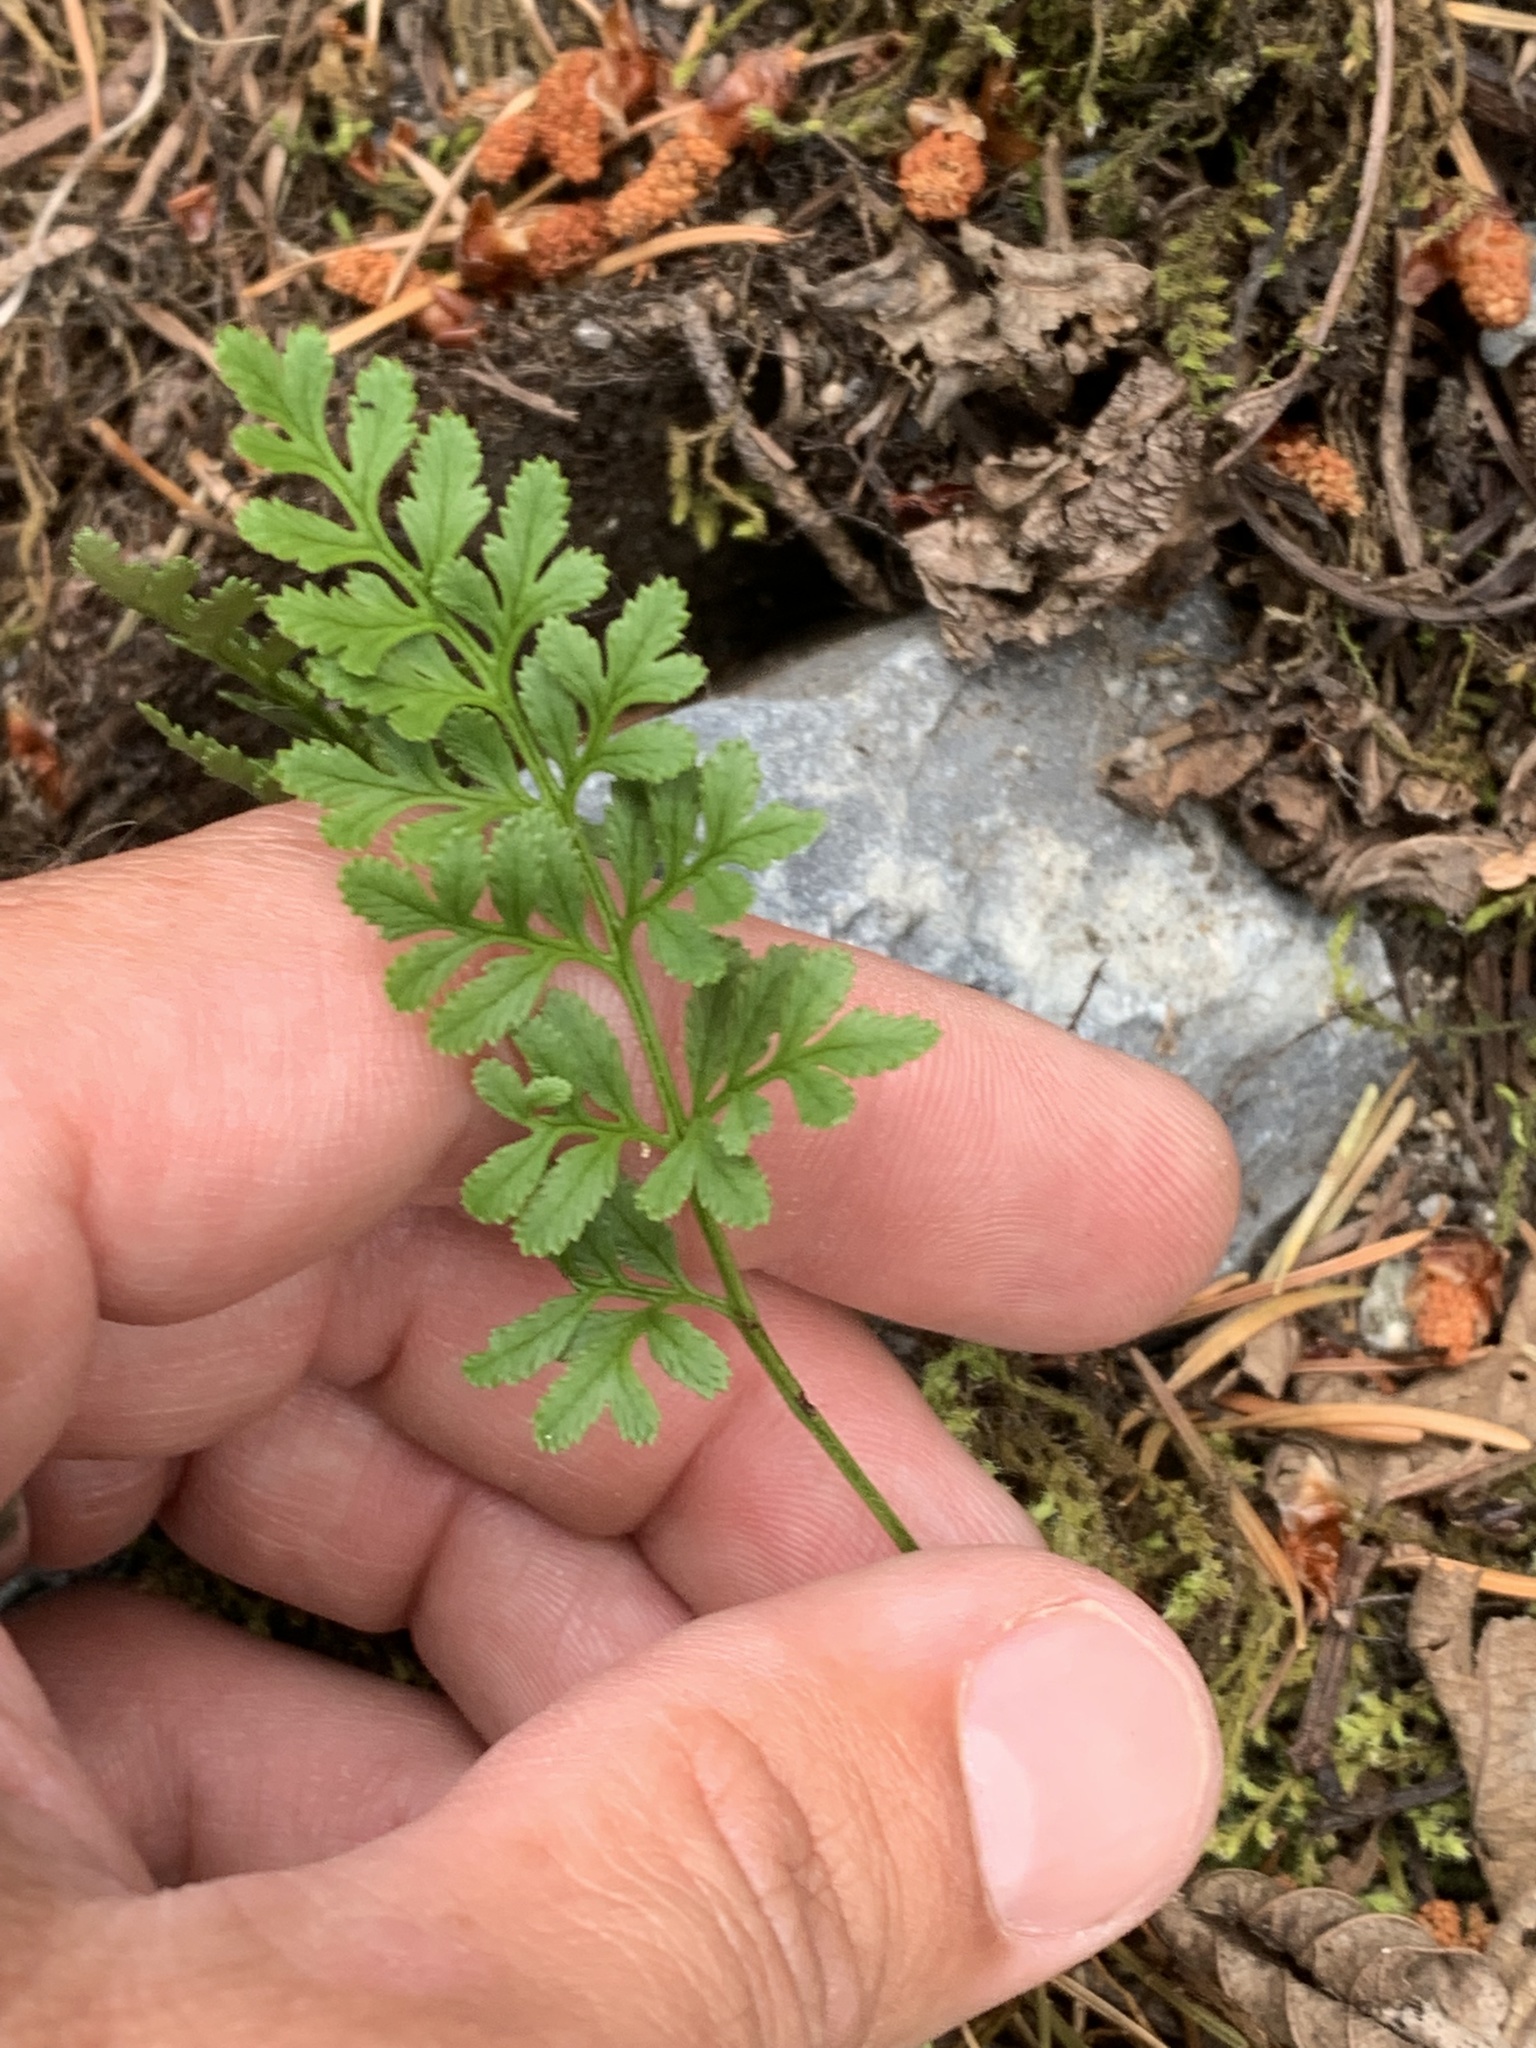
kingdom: Plantae
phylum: Tracheophyta
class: Polypodiopsida
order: Polypodiales
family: Pteridaceae
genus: Cryptogramma
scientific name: Cryptogramma acrostichoides
